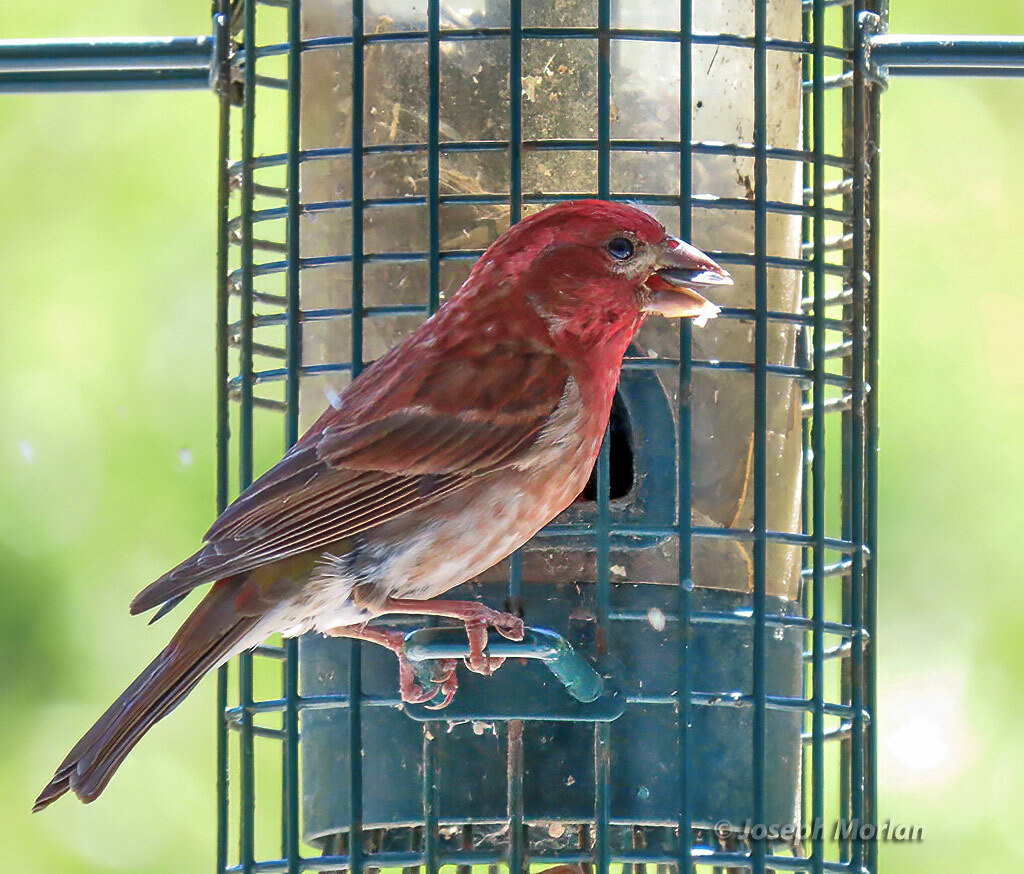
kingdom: Animalia
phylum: Chordata
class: Aves
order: Passeriformes
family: Fringillidae
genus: Haemorhous
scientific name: Haemorhous purpureus
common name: Purple finch
